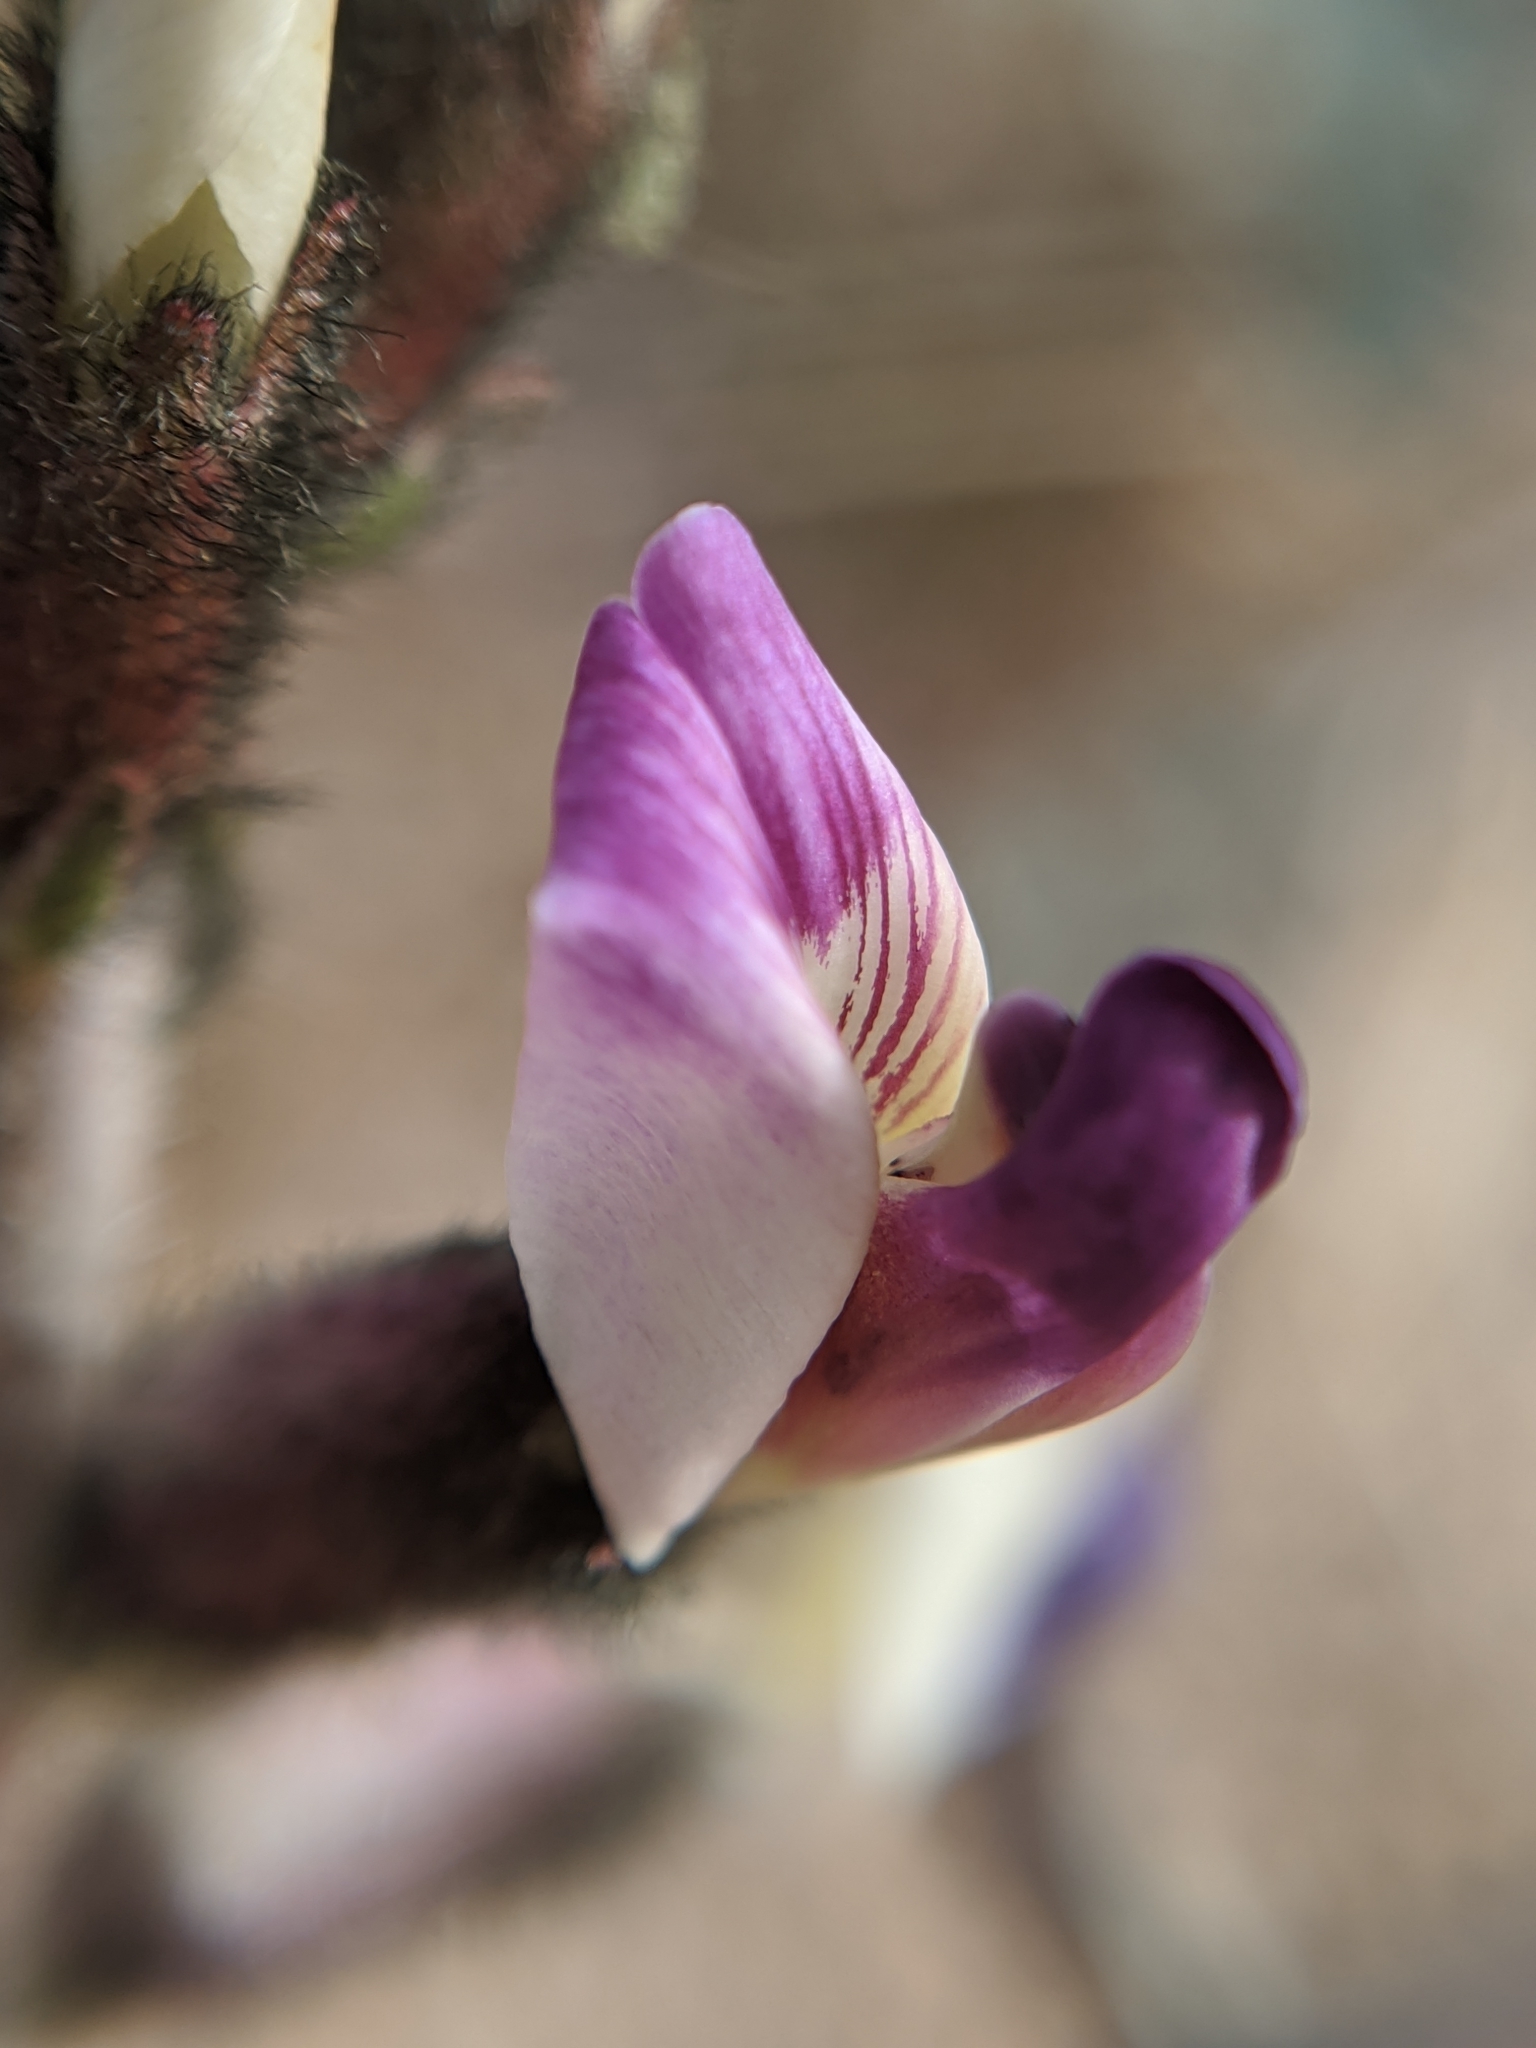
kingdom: Plantae
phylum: Tracheophyta
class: Magnoliopsida
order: Fabales
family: Fabaceae
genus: Astragalus
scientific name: Astragalus layneae
